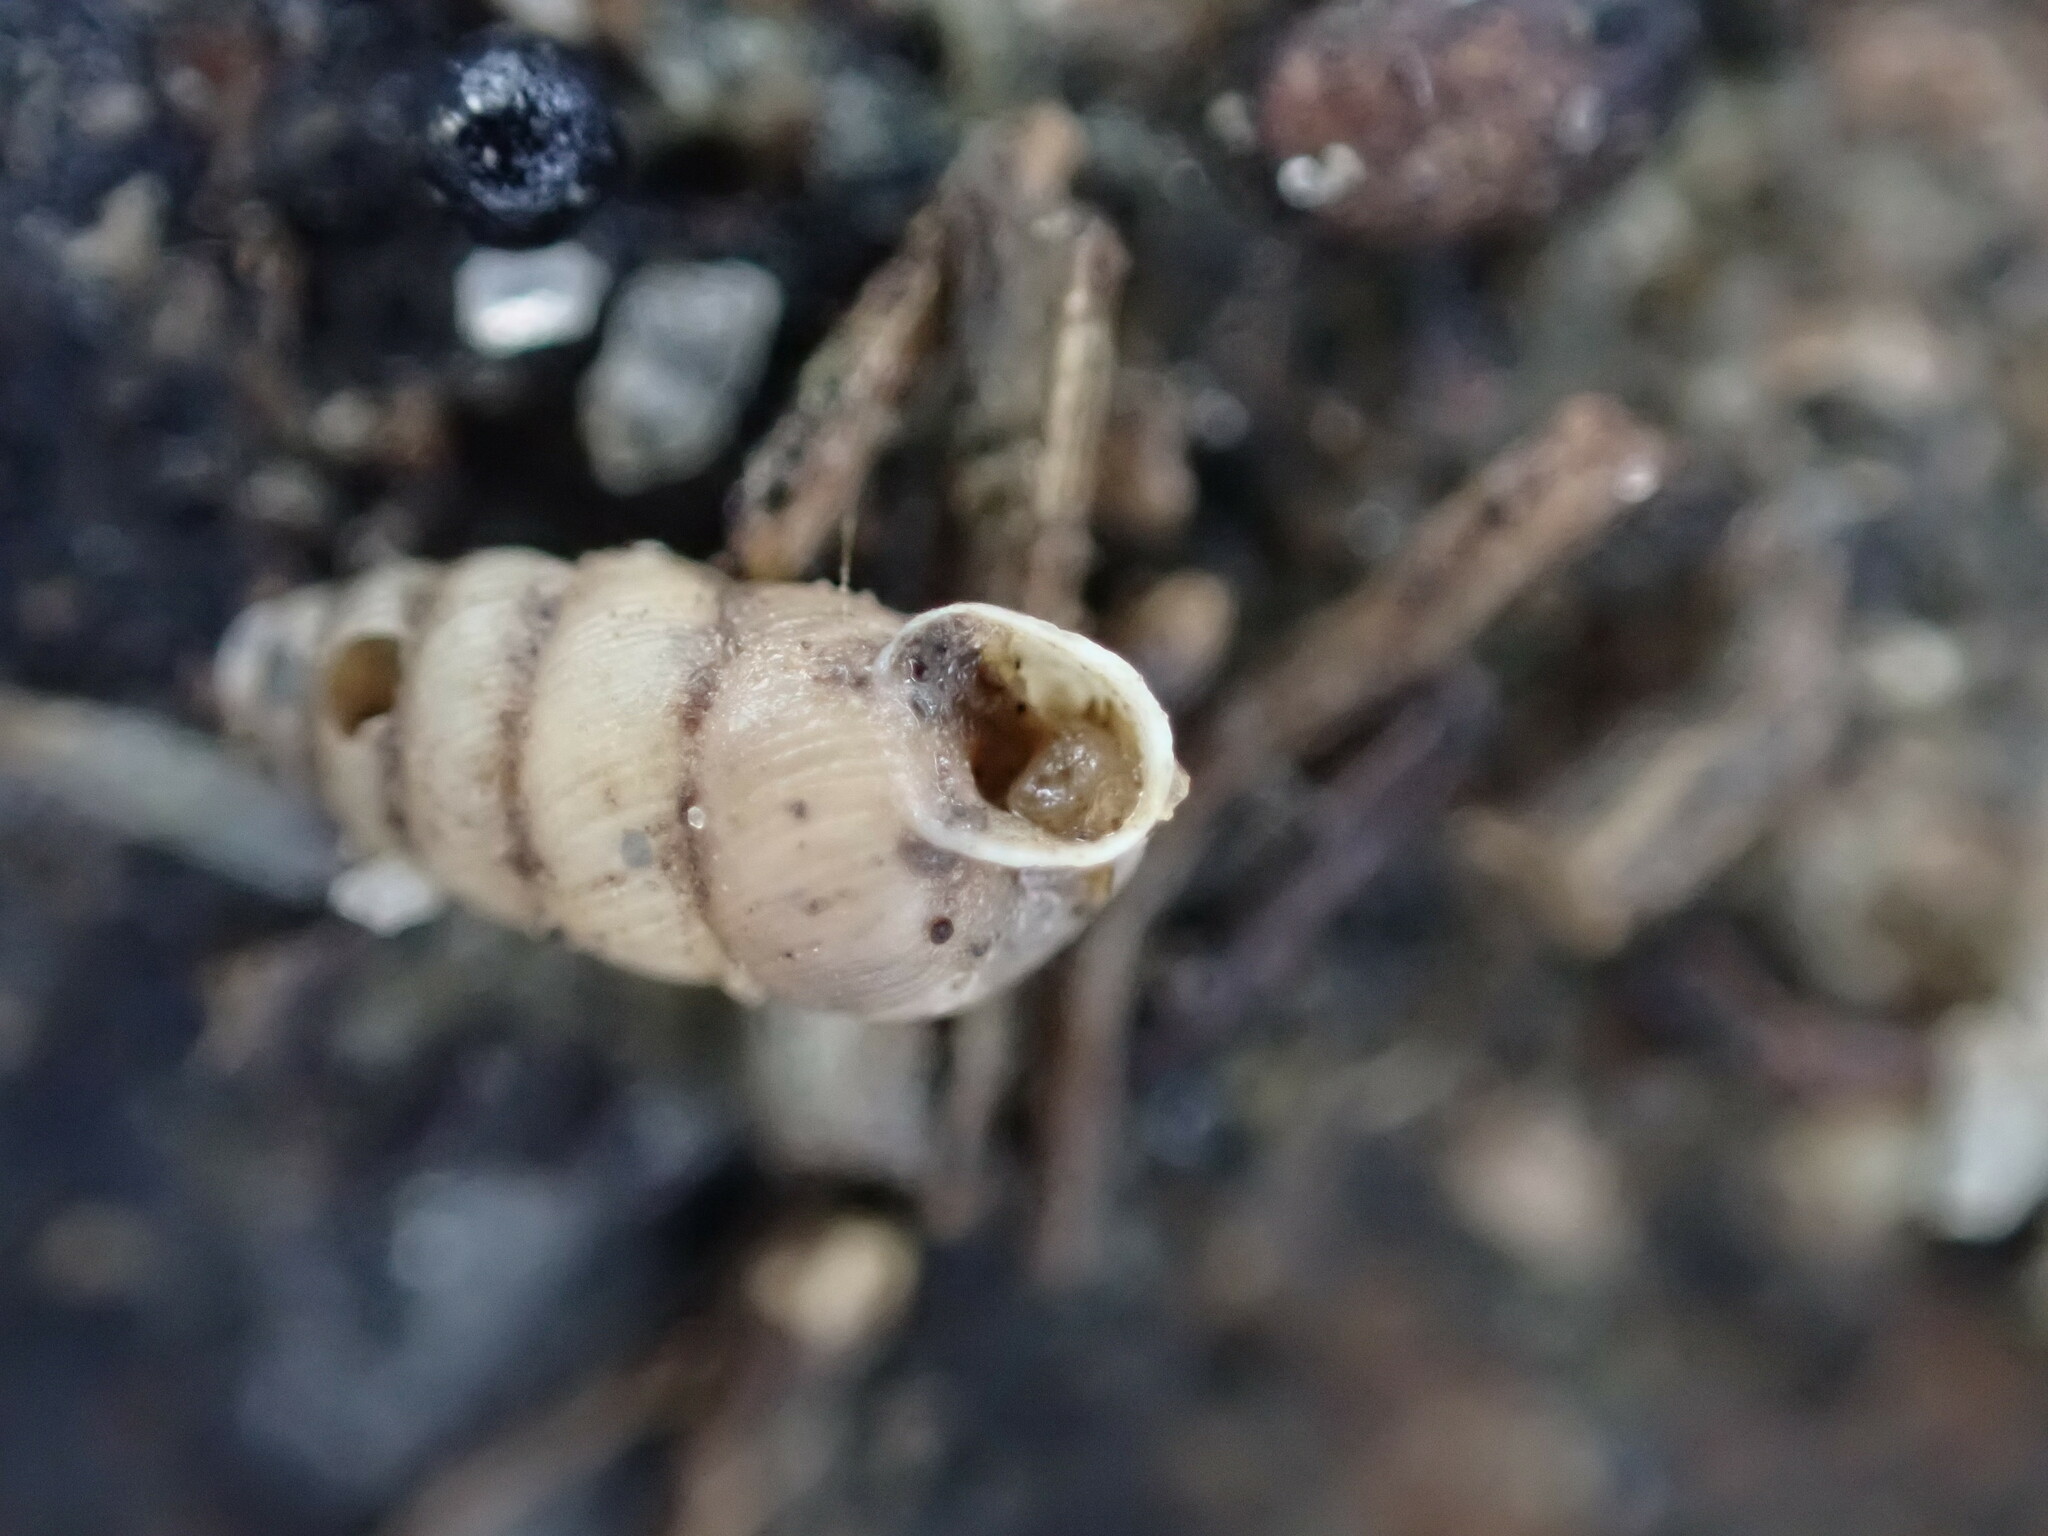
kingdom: Animalia
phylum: Mollusca
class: Gastropoda
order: Stylommatophora
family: Chondrinidae
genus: Granopupa
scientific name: Granopupa granum
